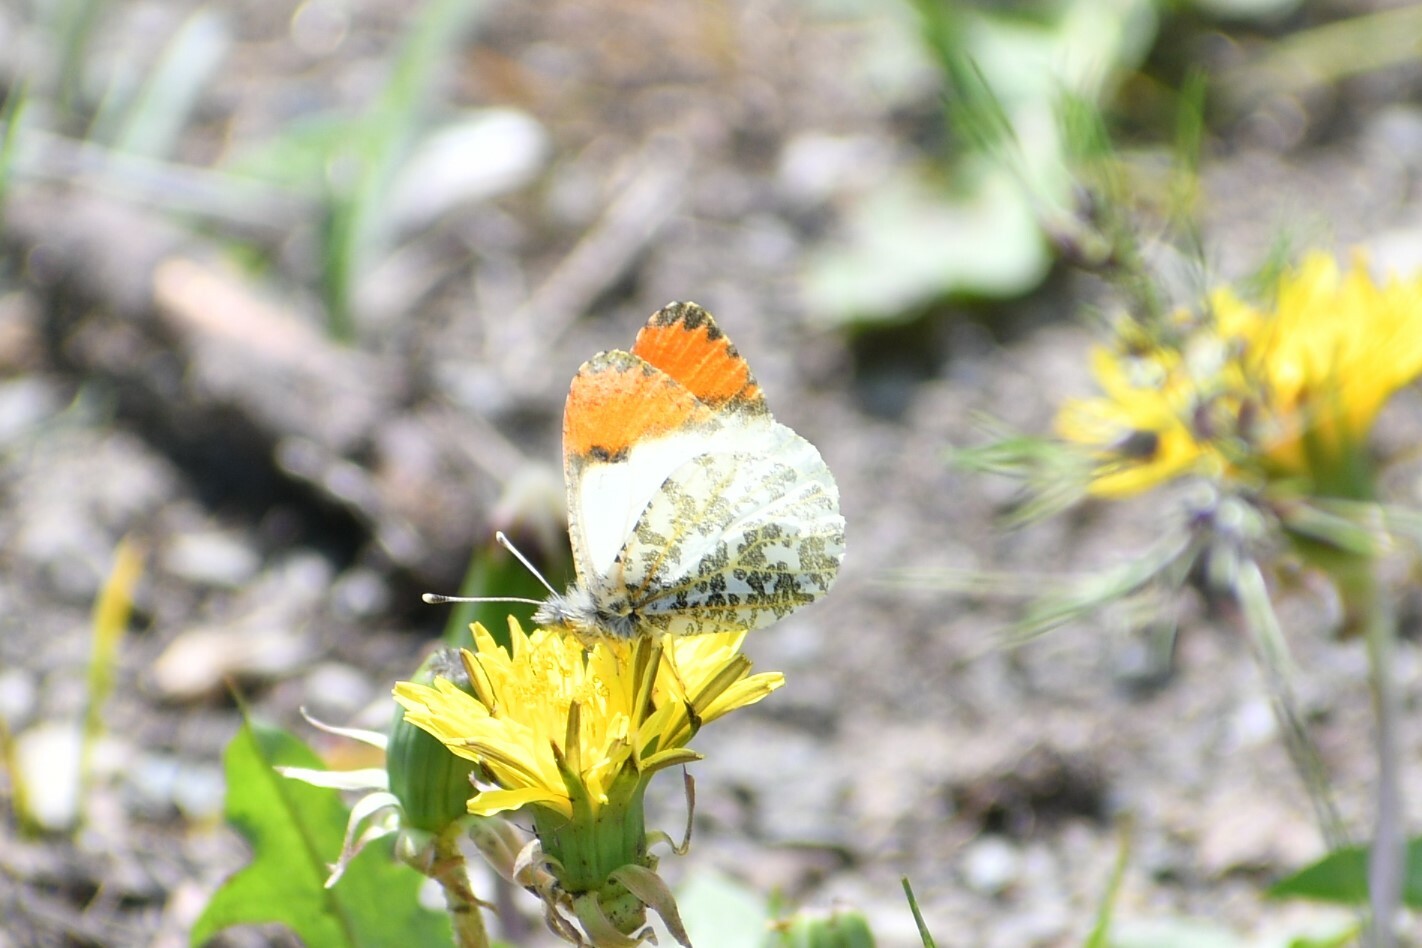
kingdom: Animalia
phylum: Arthropoda
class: Insecta
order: Lepidoptera
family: Pieridae
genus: Anthocharis
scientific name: Anthocharis julia
